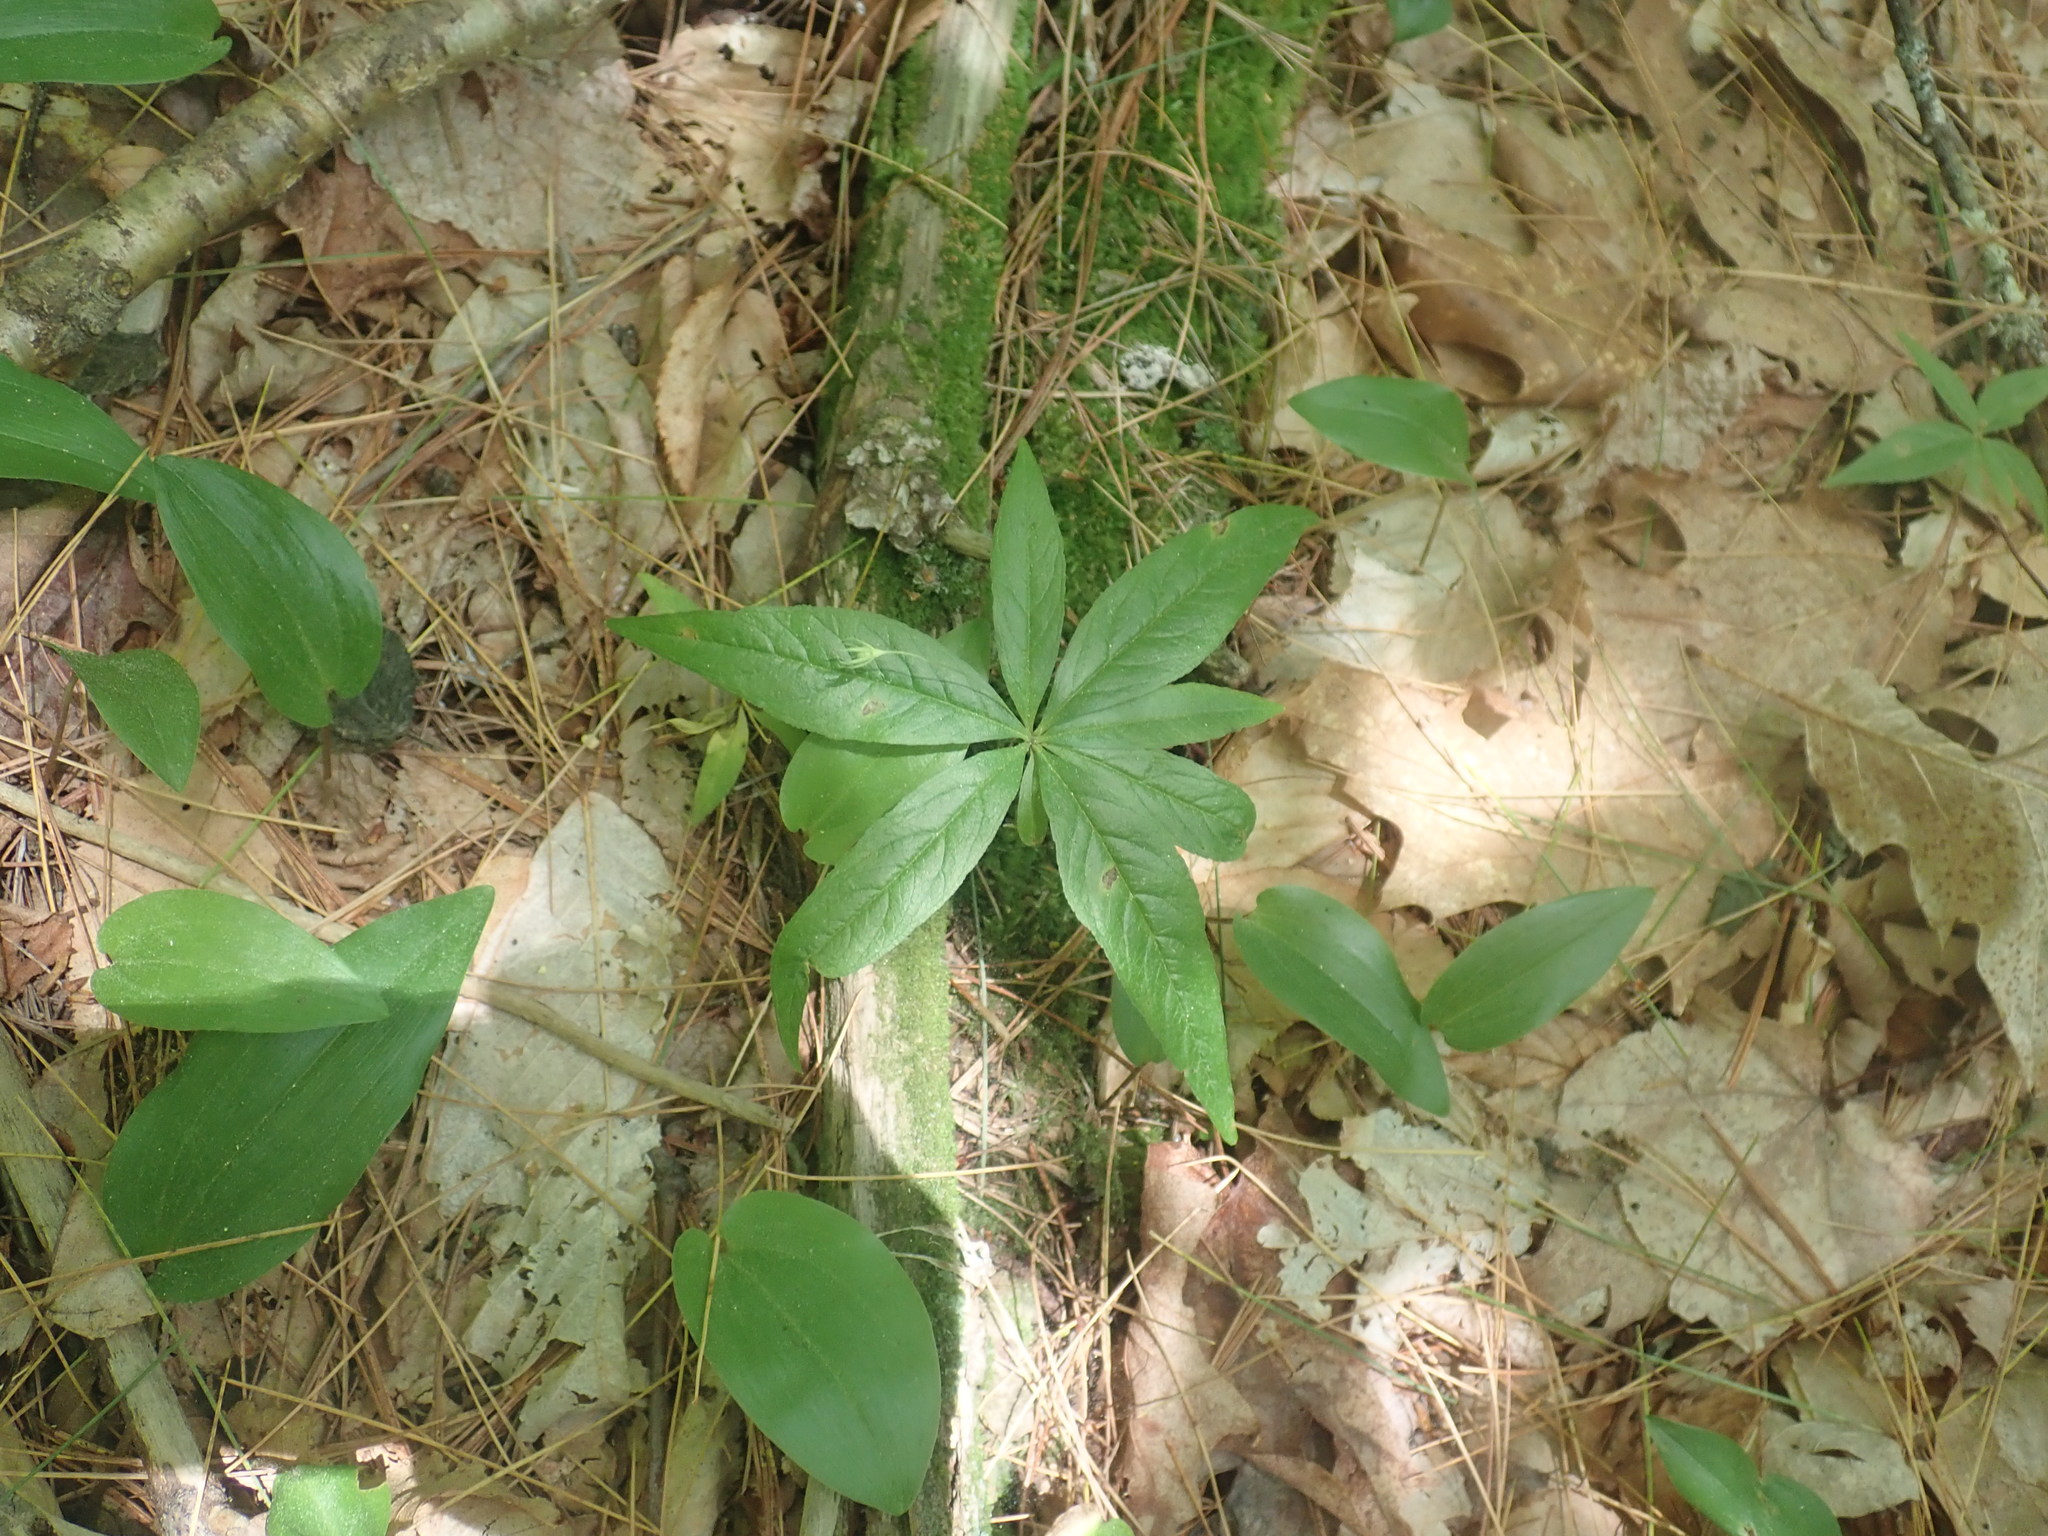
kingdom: Plantae
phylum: Tracheophyta
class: Magnoliopsida
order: Ericales
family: Primulaceae
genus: Lysimachia
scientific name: Lysimachia borealis
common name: American starflower
